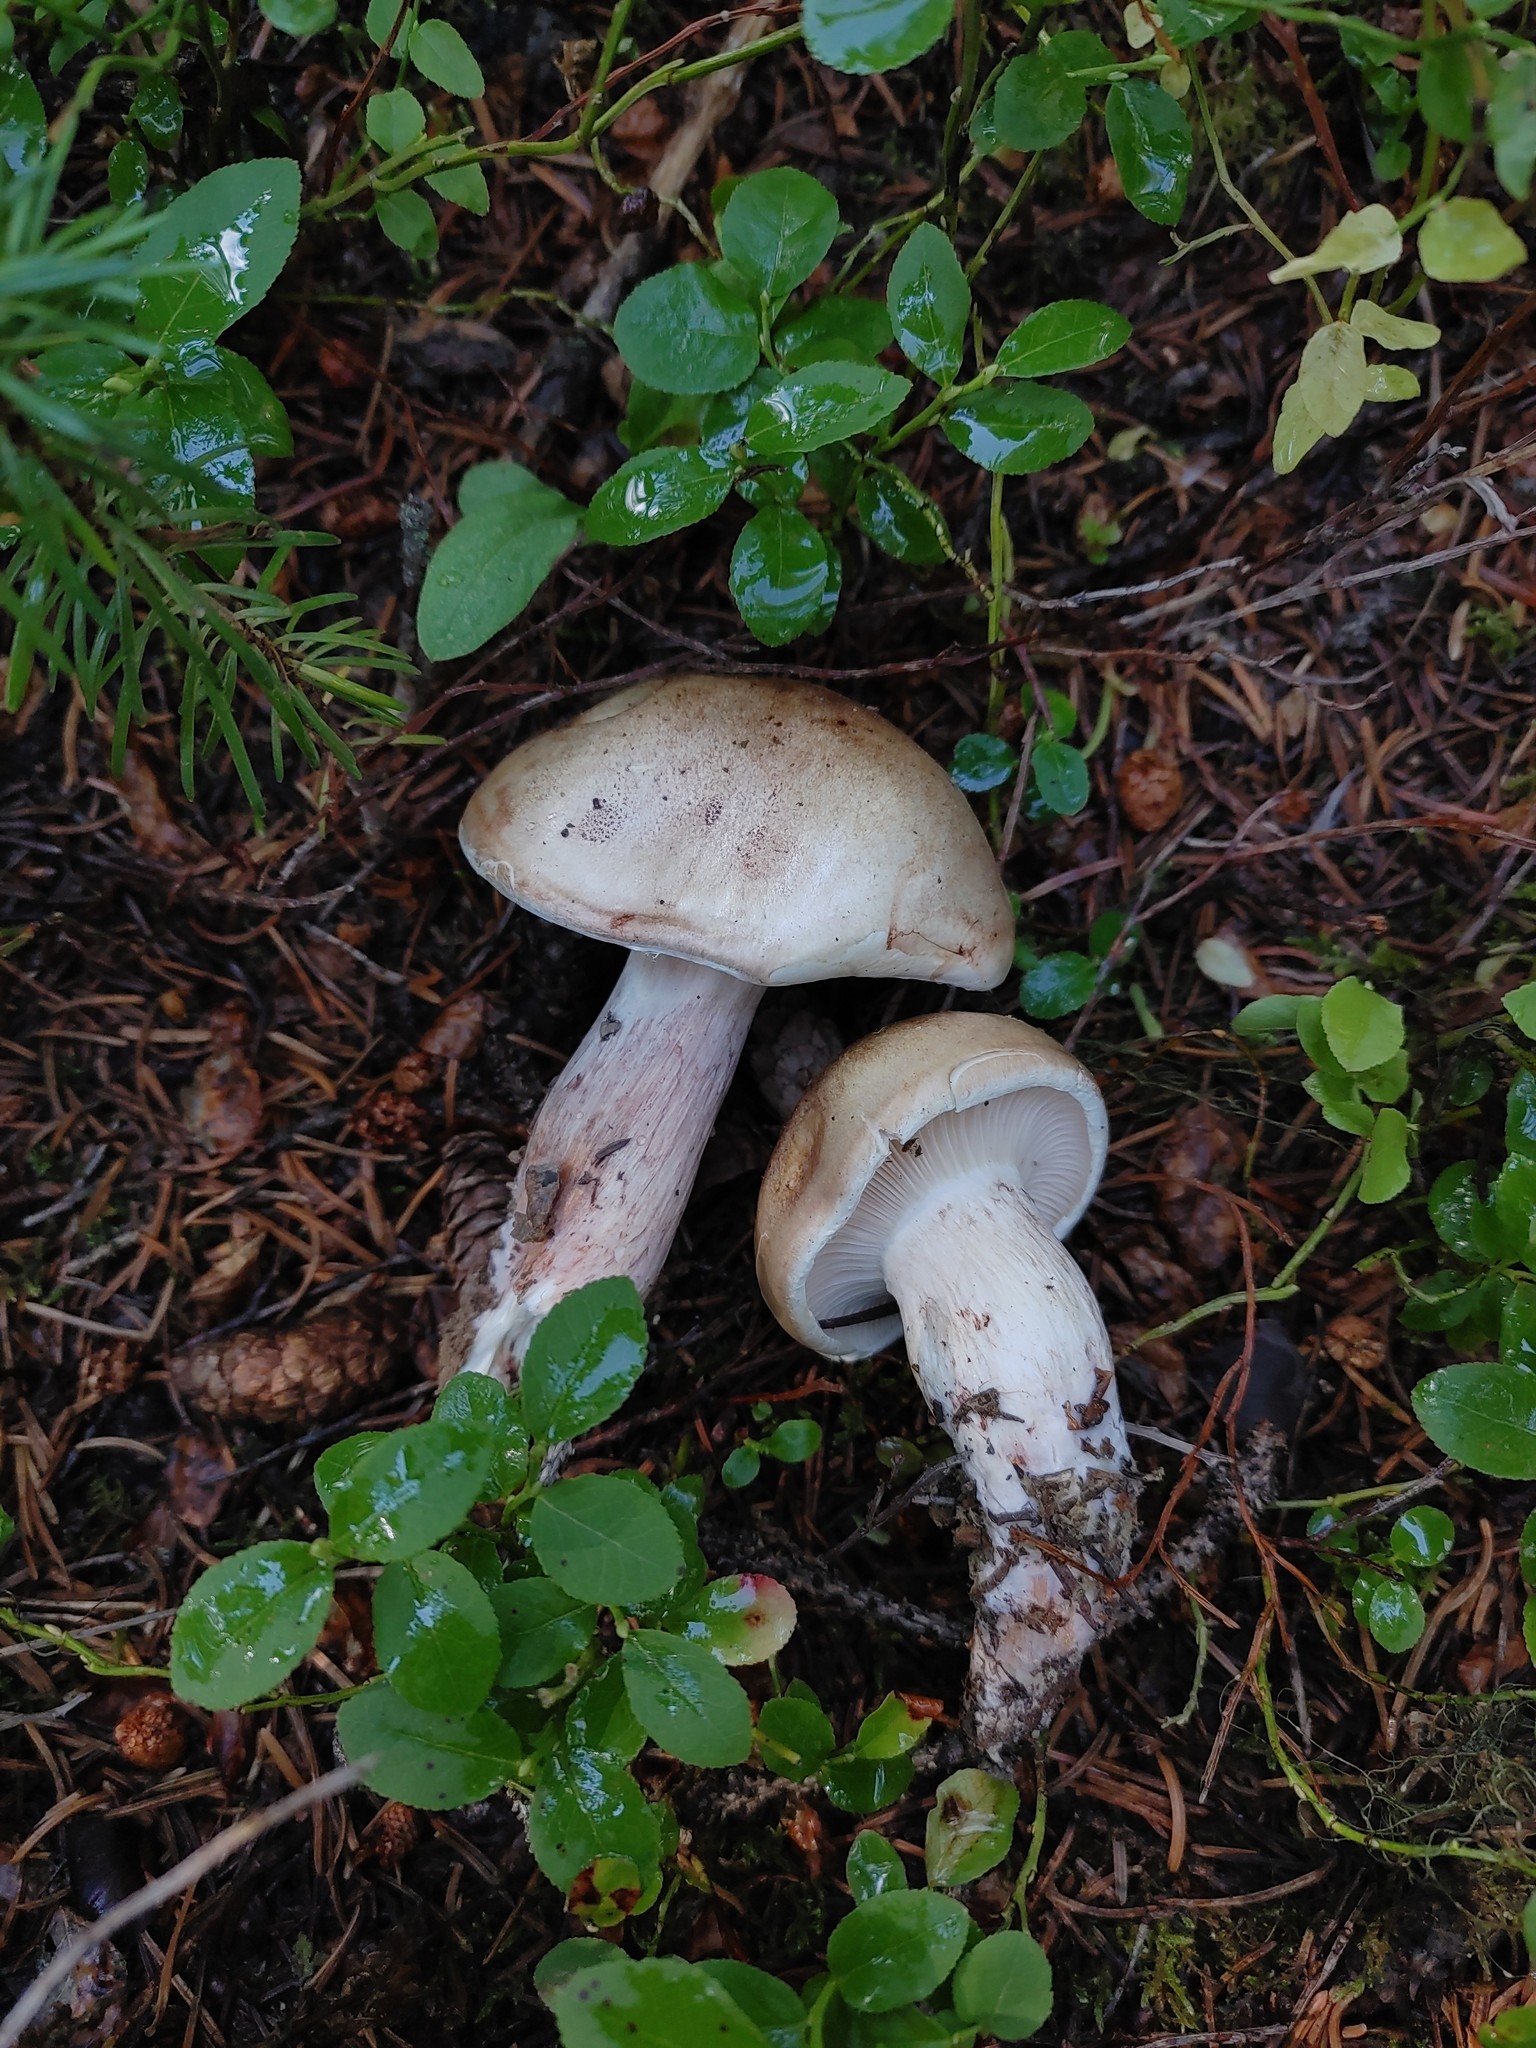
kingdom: Fungi
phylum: Basidiomycota
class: Agaricomycetes
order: Agaricales
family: Hygrophoraceae
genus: Hygrophorus
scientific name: Hygrophorus erubescens
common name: Blotched woodwax
